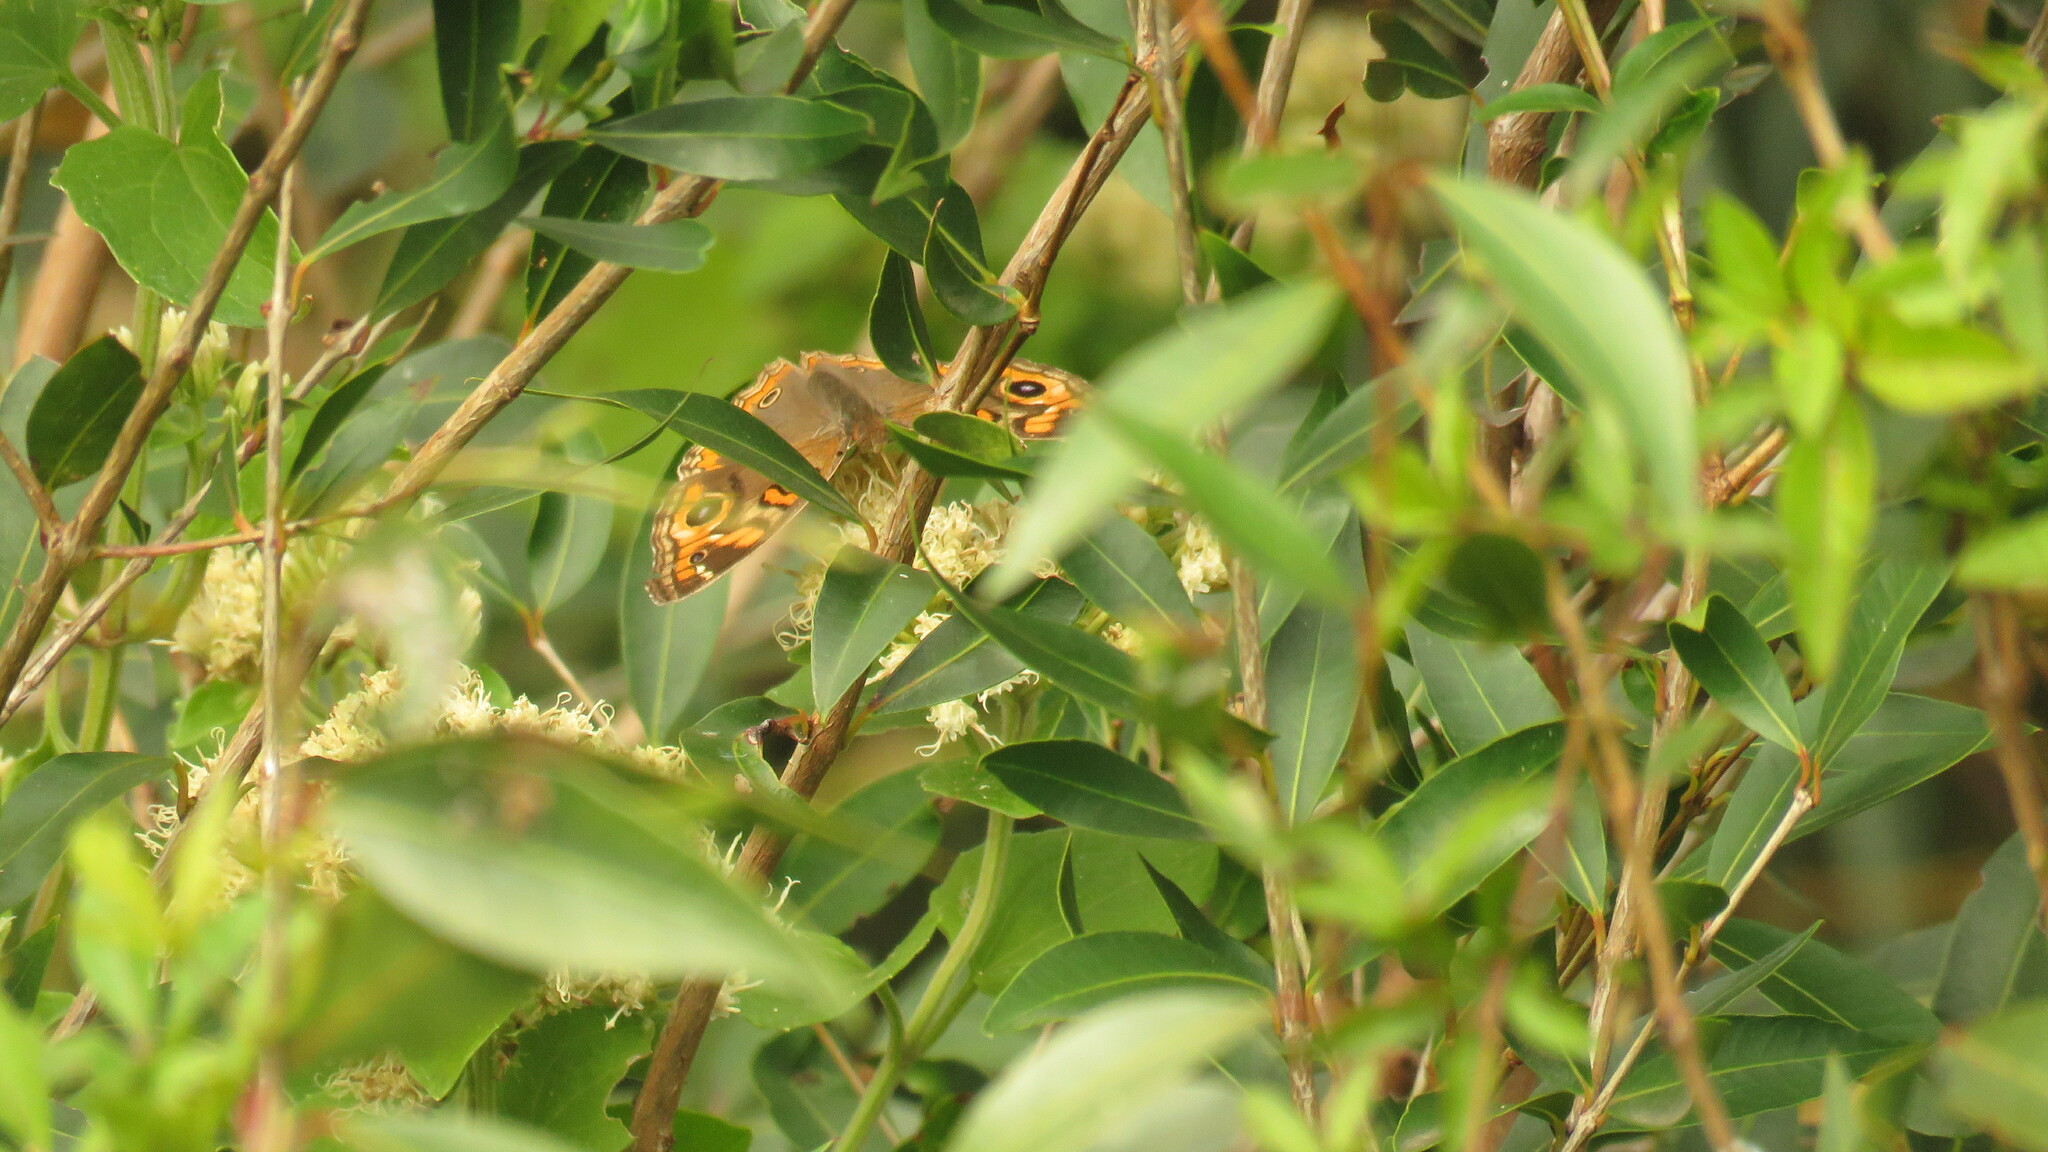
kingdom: Animalia
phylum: Arthropoda
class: Insecta
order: Lepidoptera
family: Nymphalidae
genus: Junonia
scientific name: Junonia lavinia
